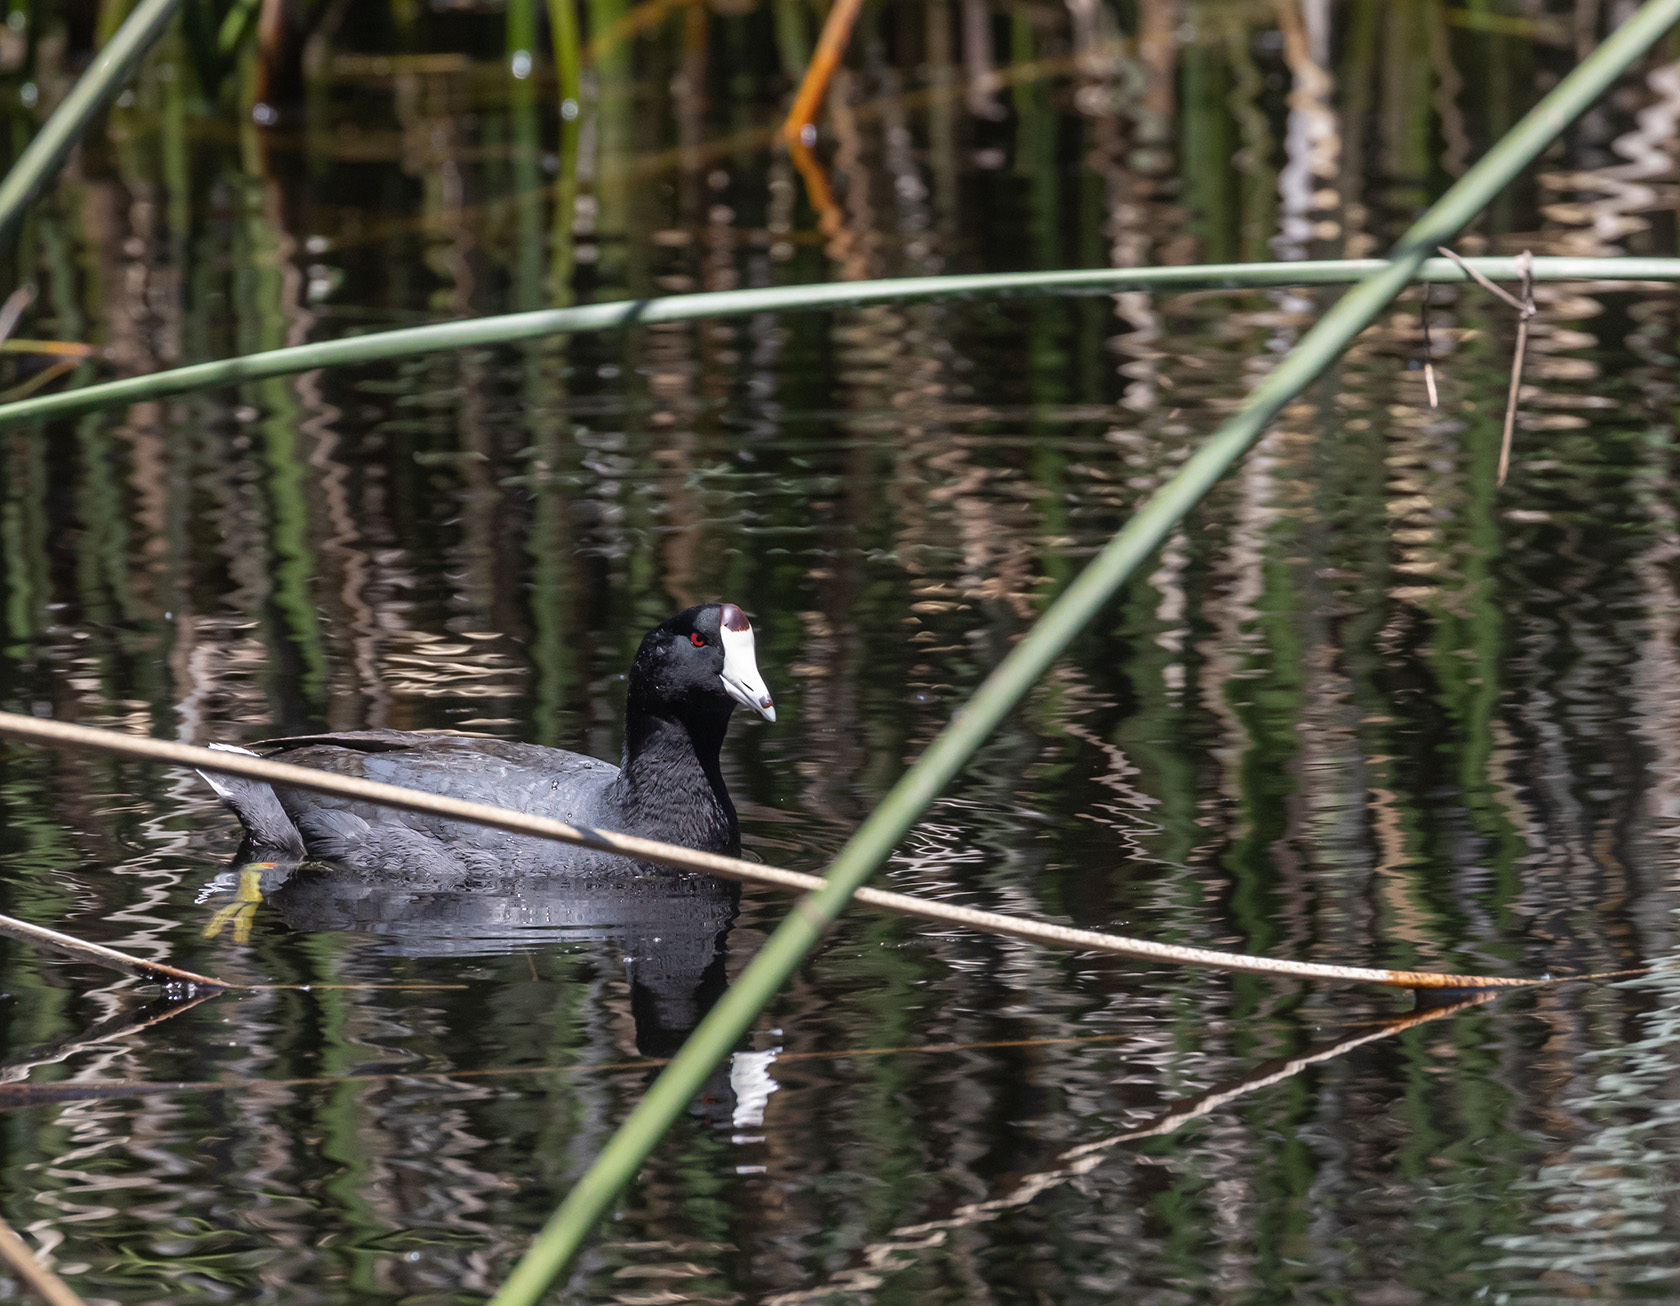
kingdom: Animalia
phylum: Chordata
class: Aves
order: Gruiformes
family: Rallidae
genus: Fulica
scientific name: Fulica americana
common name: American coot
